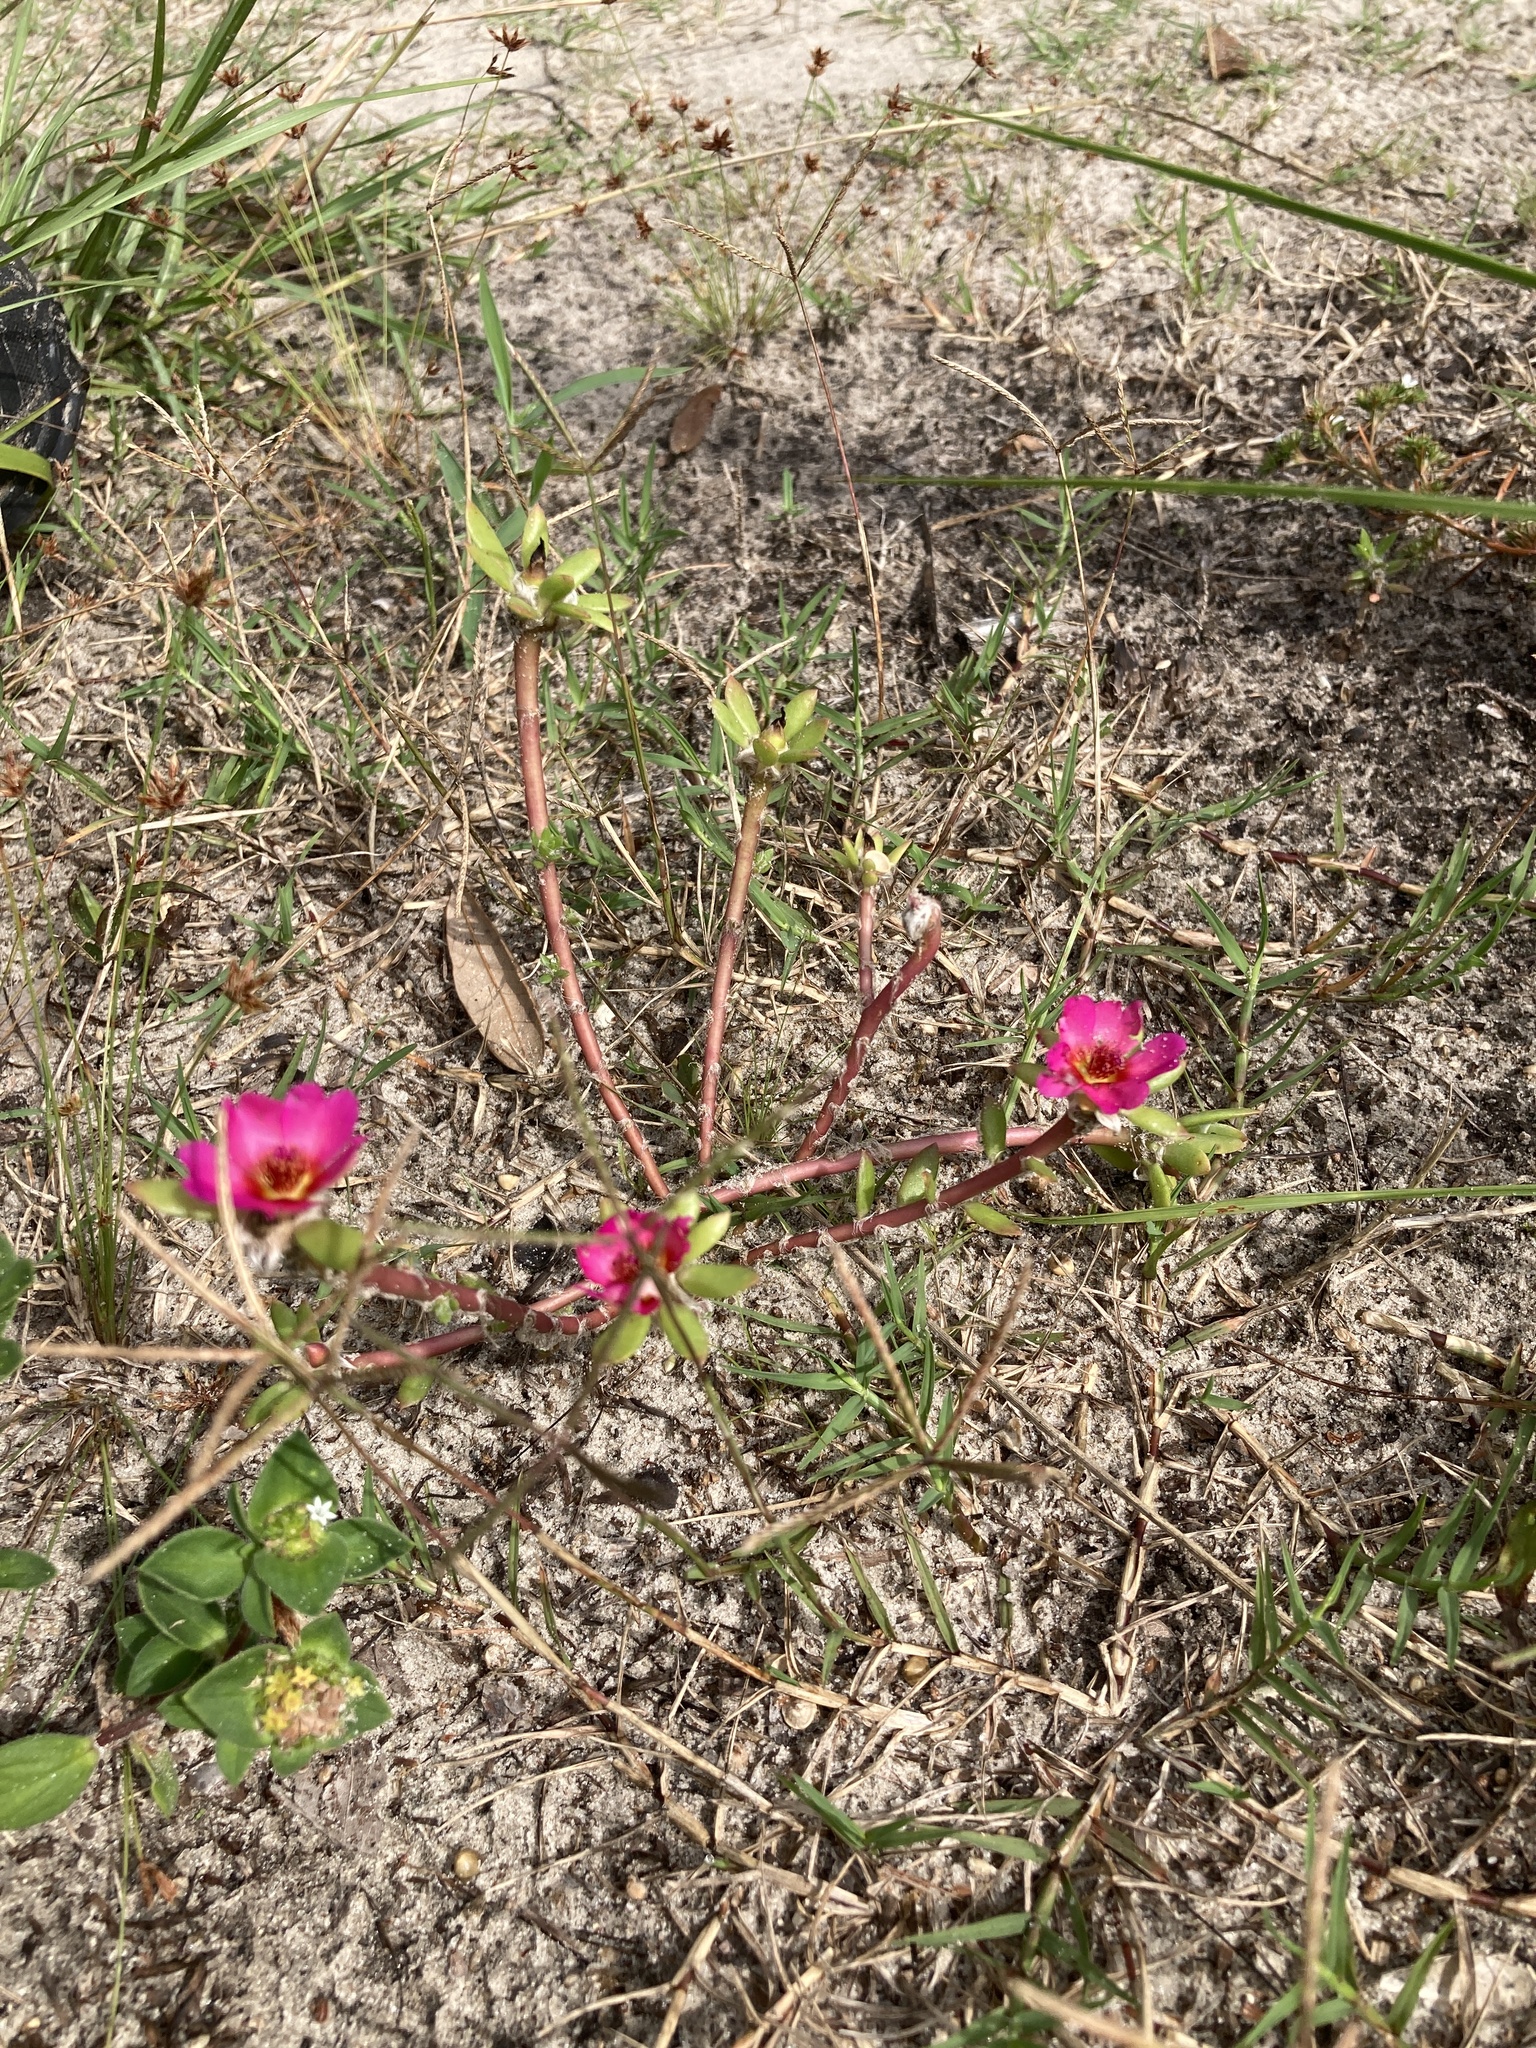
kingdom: Plantae
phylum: Tracheophyta
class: Magnoliopsida
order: Caryophyllales
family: Portulacaceae
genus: Portulaca
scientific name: Portulaca amilis
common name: Paraguayan purslane
